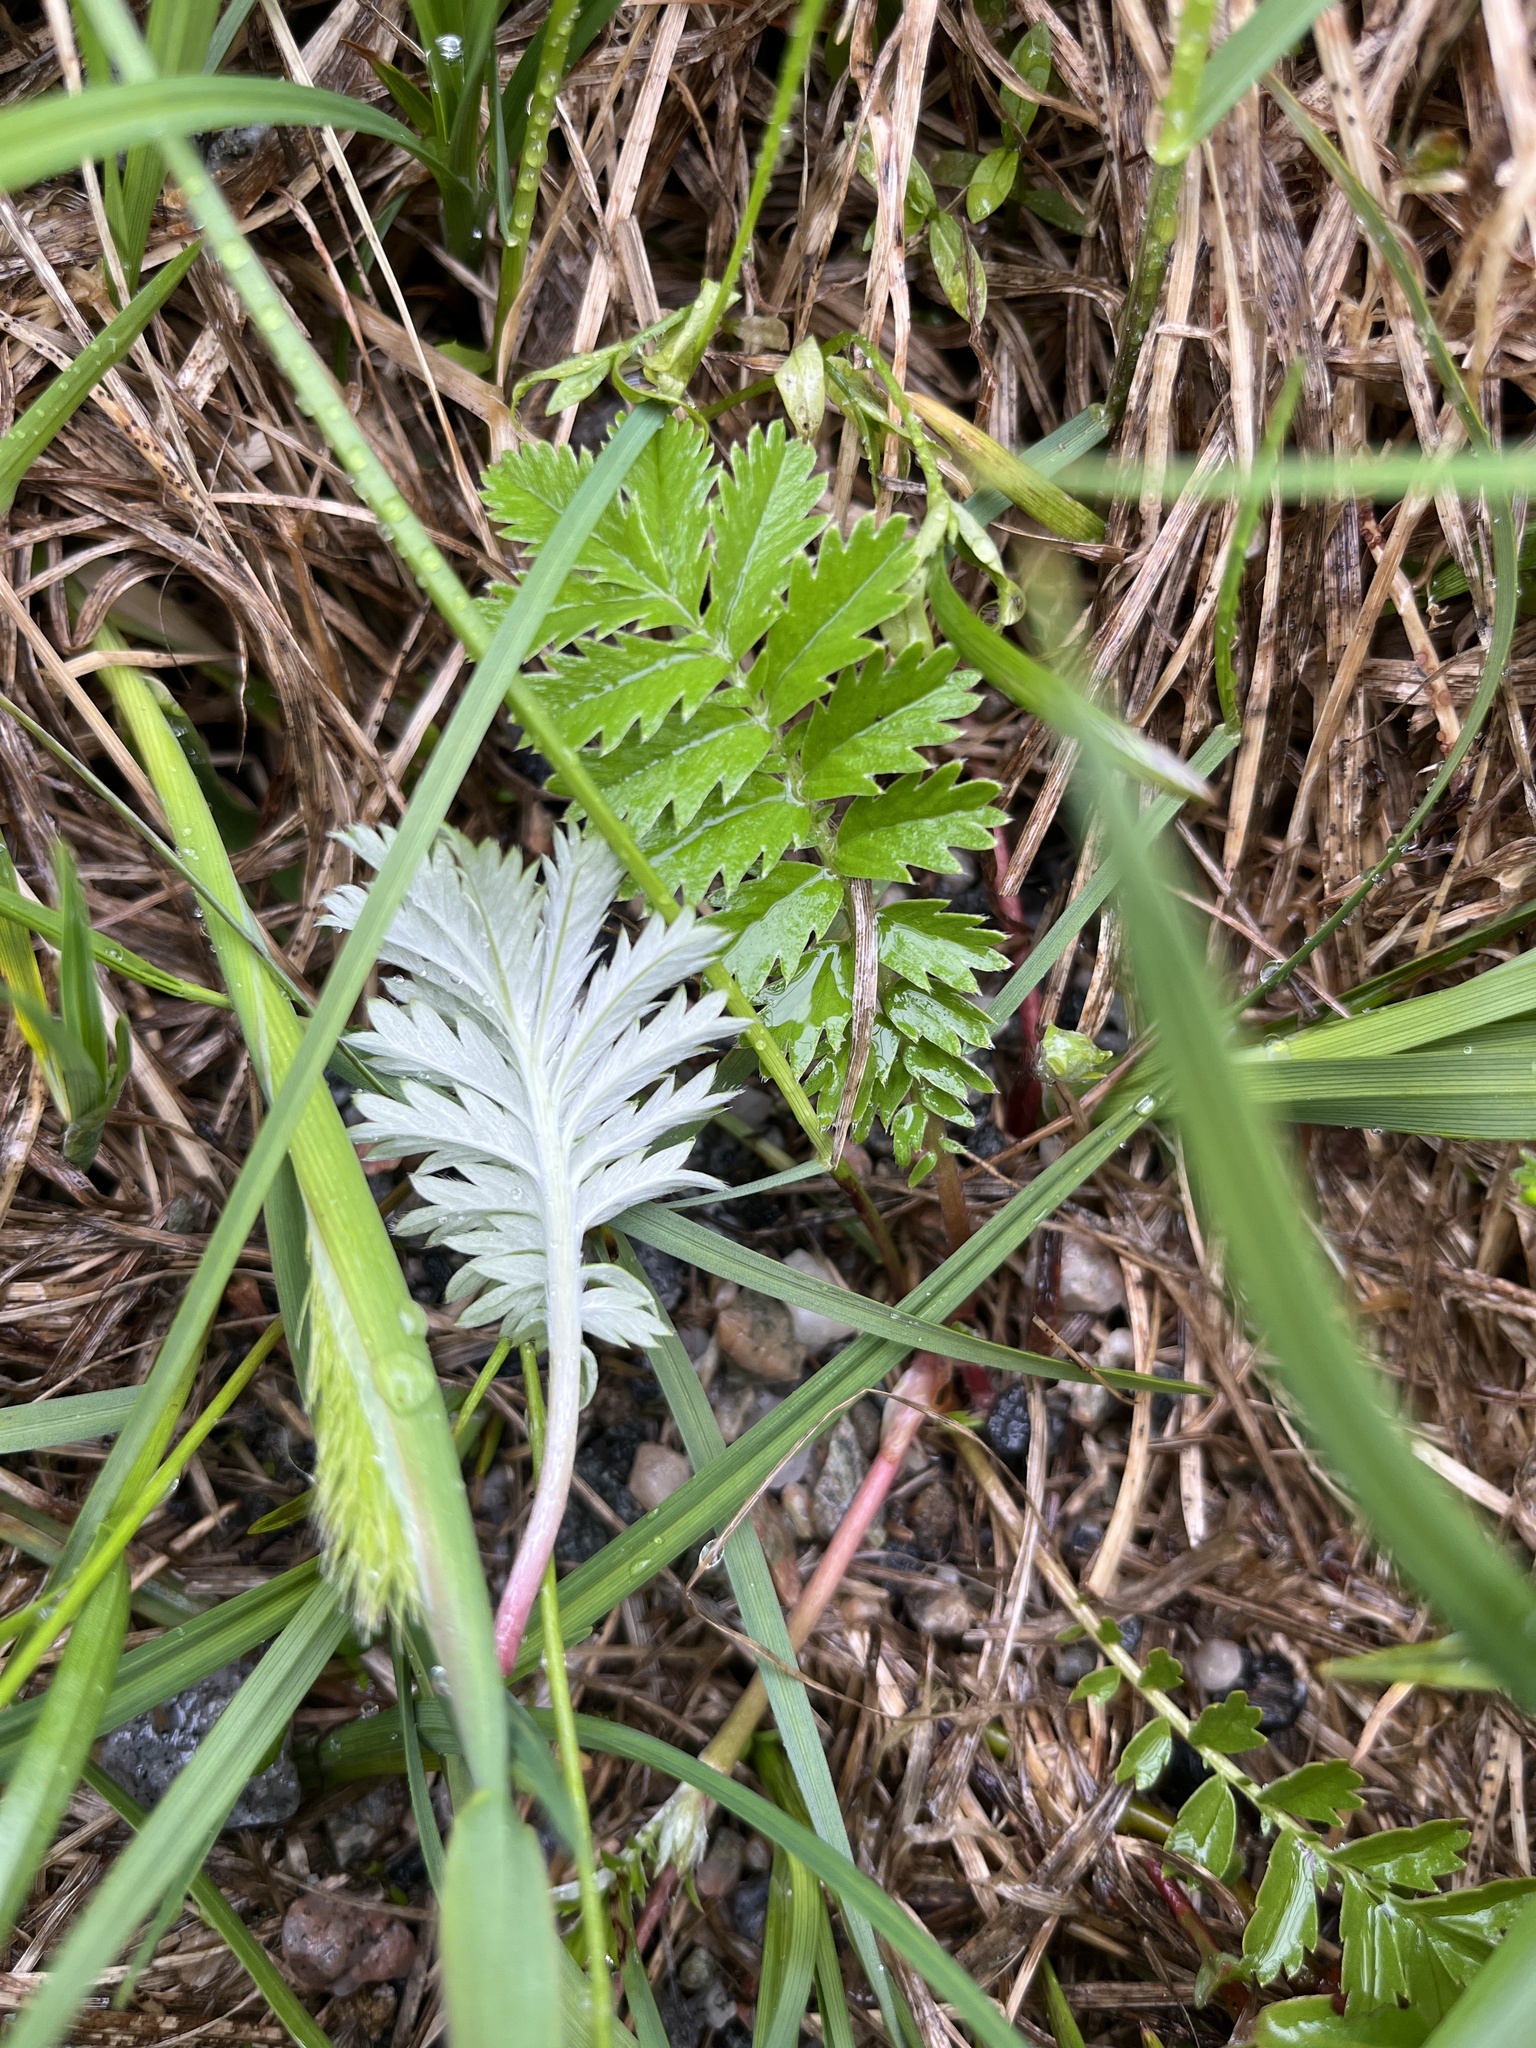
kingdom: Plantae
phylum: Tracheophyta
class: Magnoliopsida
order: Rosales
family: Rosaceae
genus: Argentina
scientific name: Argentina anserina
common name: Common silverweed
